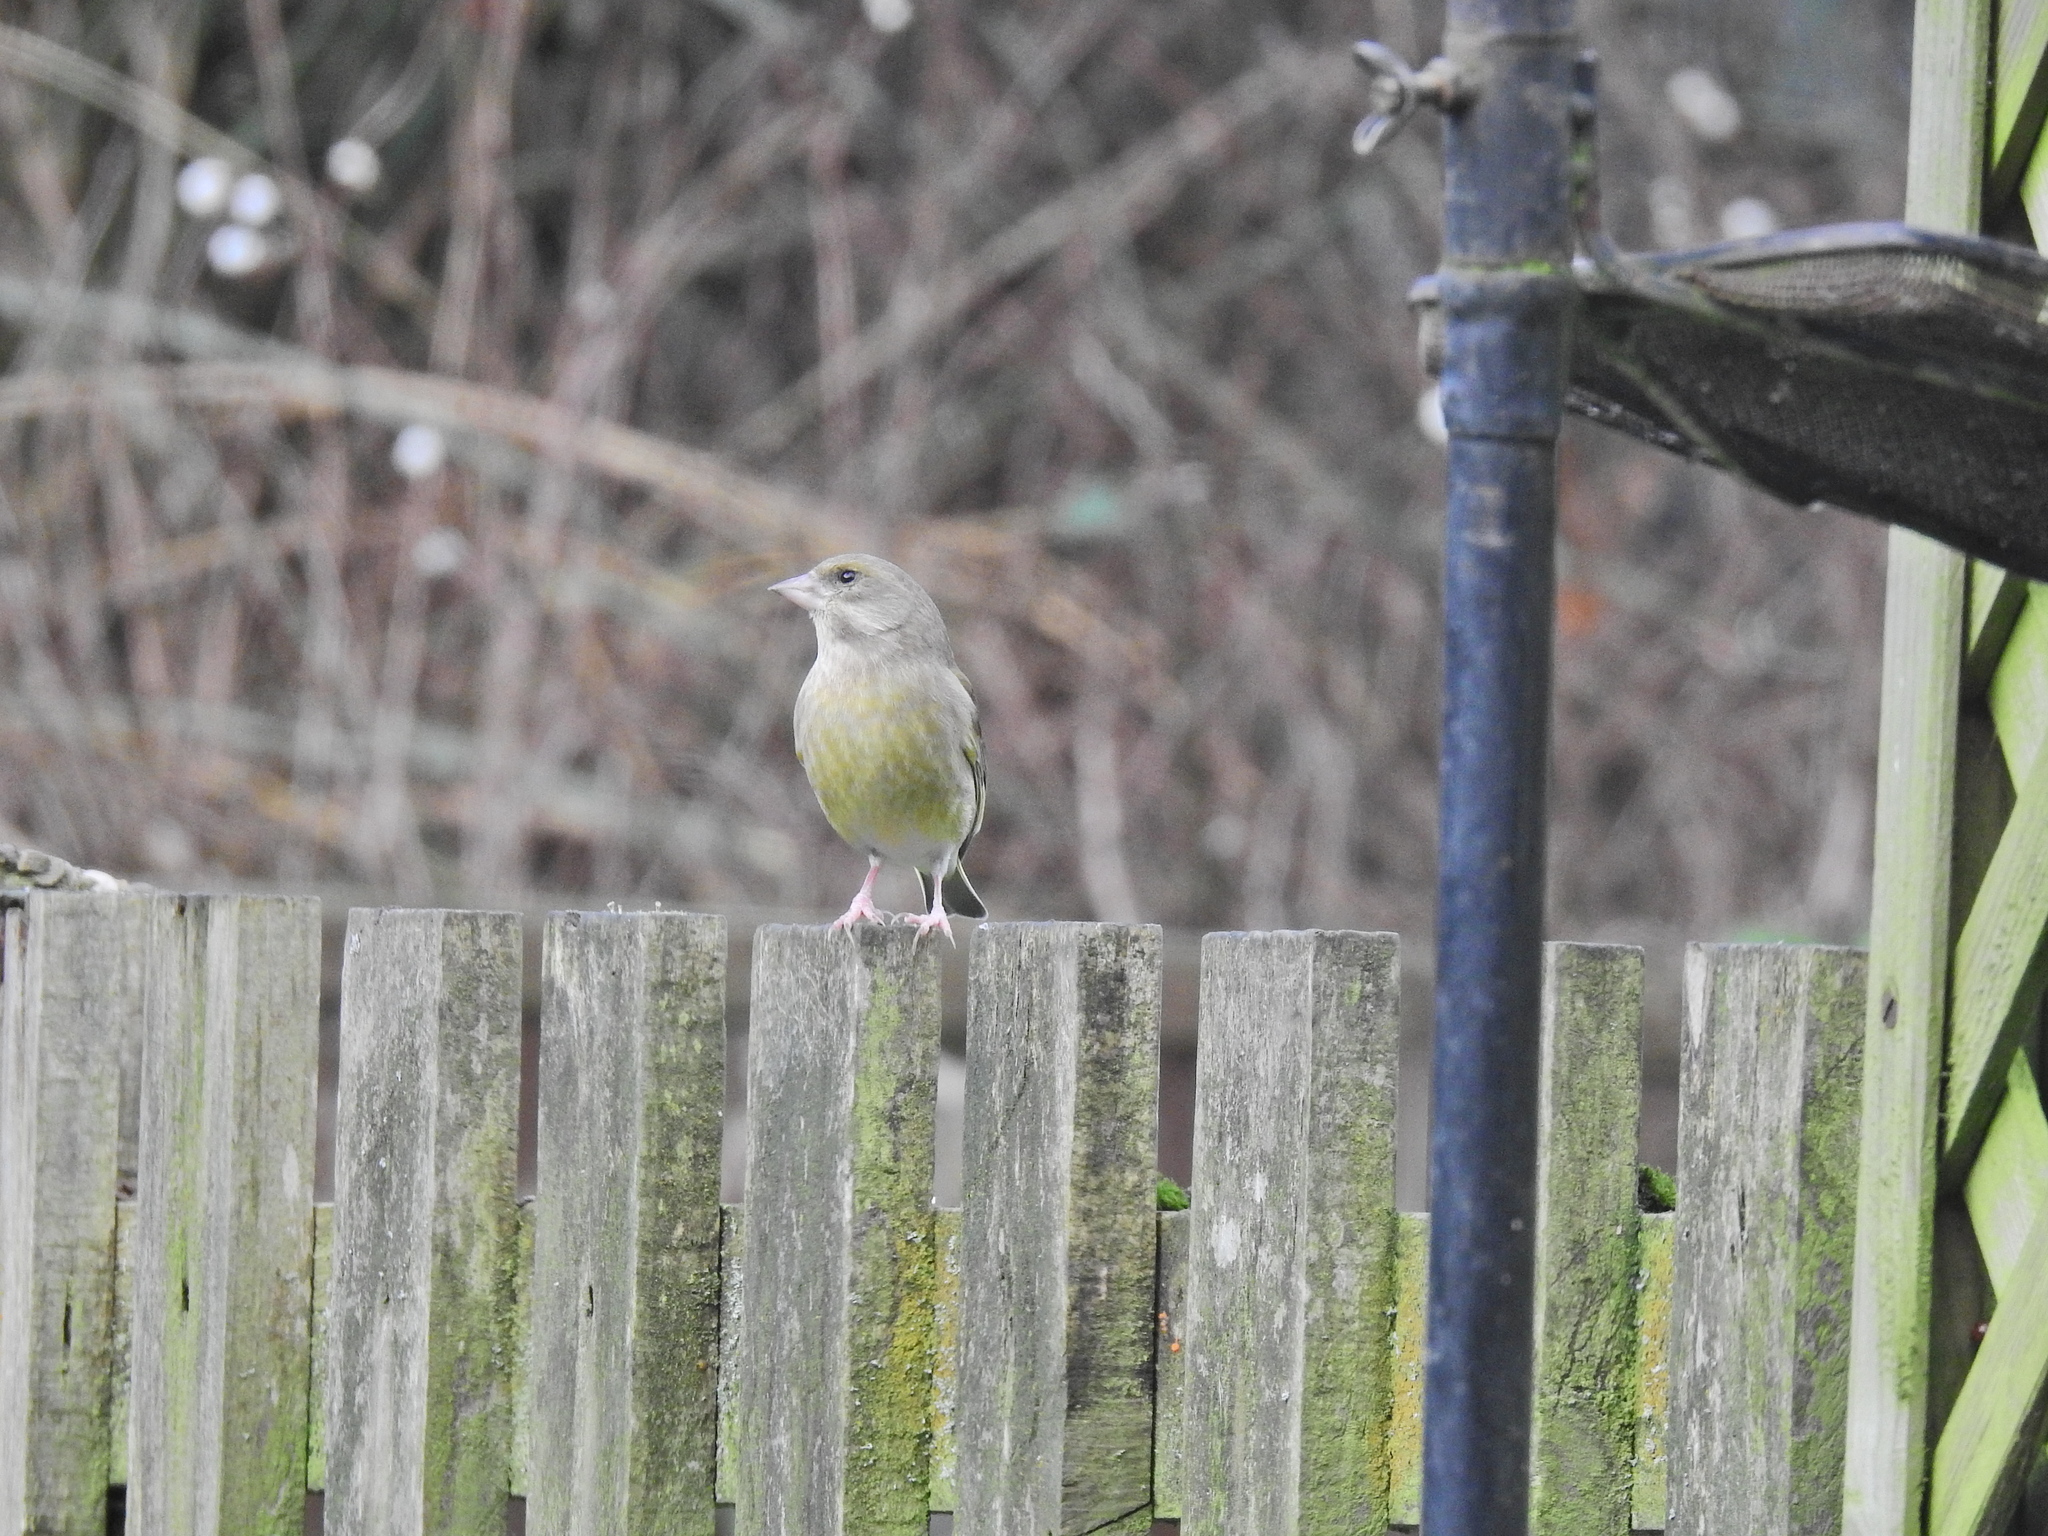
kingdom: Plantae
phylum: Tracheophyta
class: Liliopsida
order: Poales
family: Poaceae
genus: Chloris
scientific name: Chloris chloris
